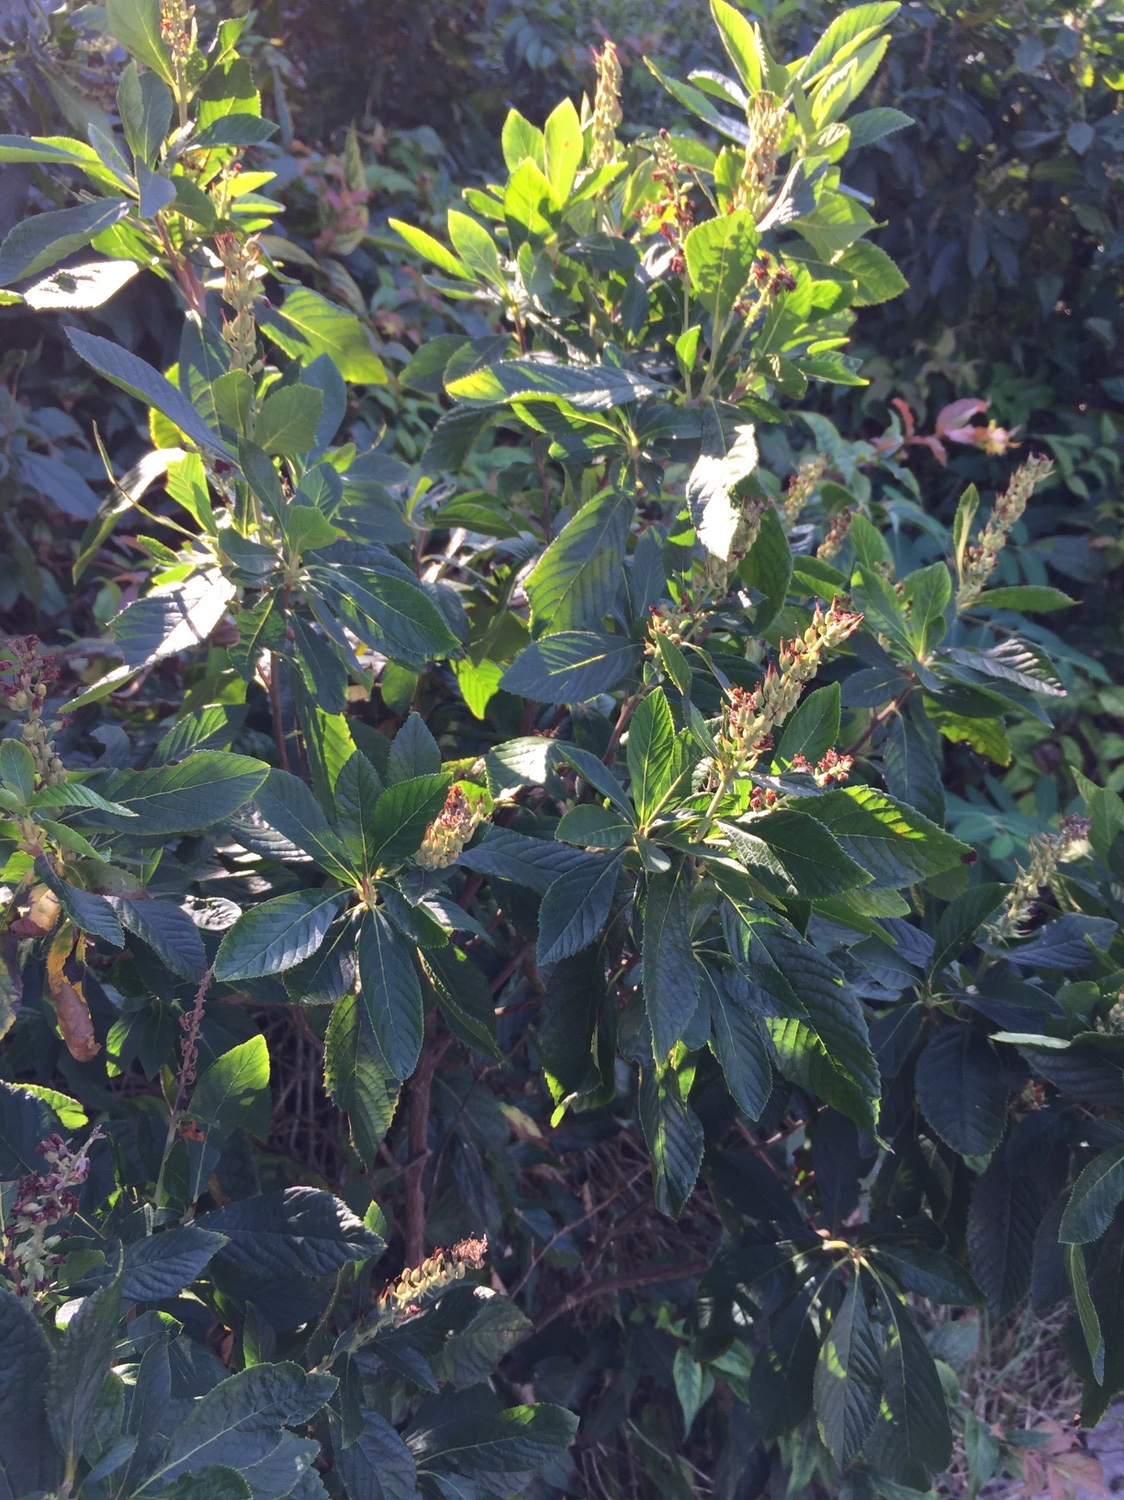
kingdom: Plantae
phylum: Tracheophyta
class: Magnoliopsida
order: Ericales
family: Clethraceae
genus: Clethra
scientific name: Clethra alnifolia
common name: Sweet pepperbush
